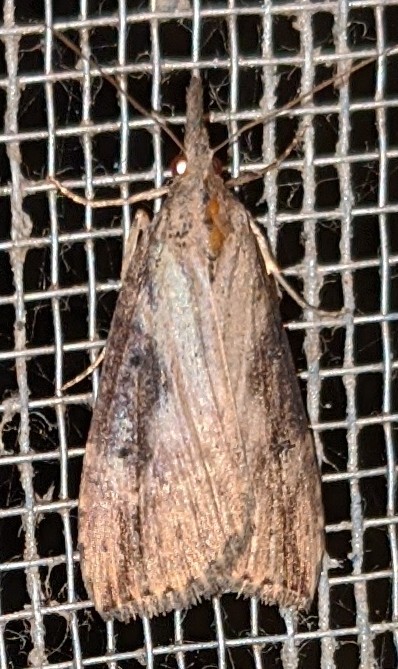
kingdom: Animalia
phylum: Arthropoda
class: Insecta
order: Lepidoptera
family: Erebidae
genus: Hypena
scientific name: Hypena humuli
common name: Hop vine snout
